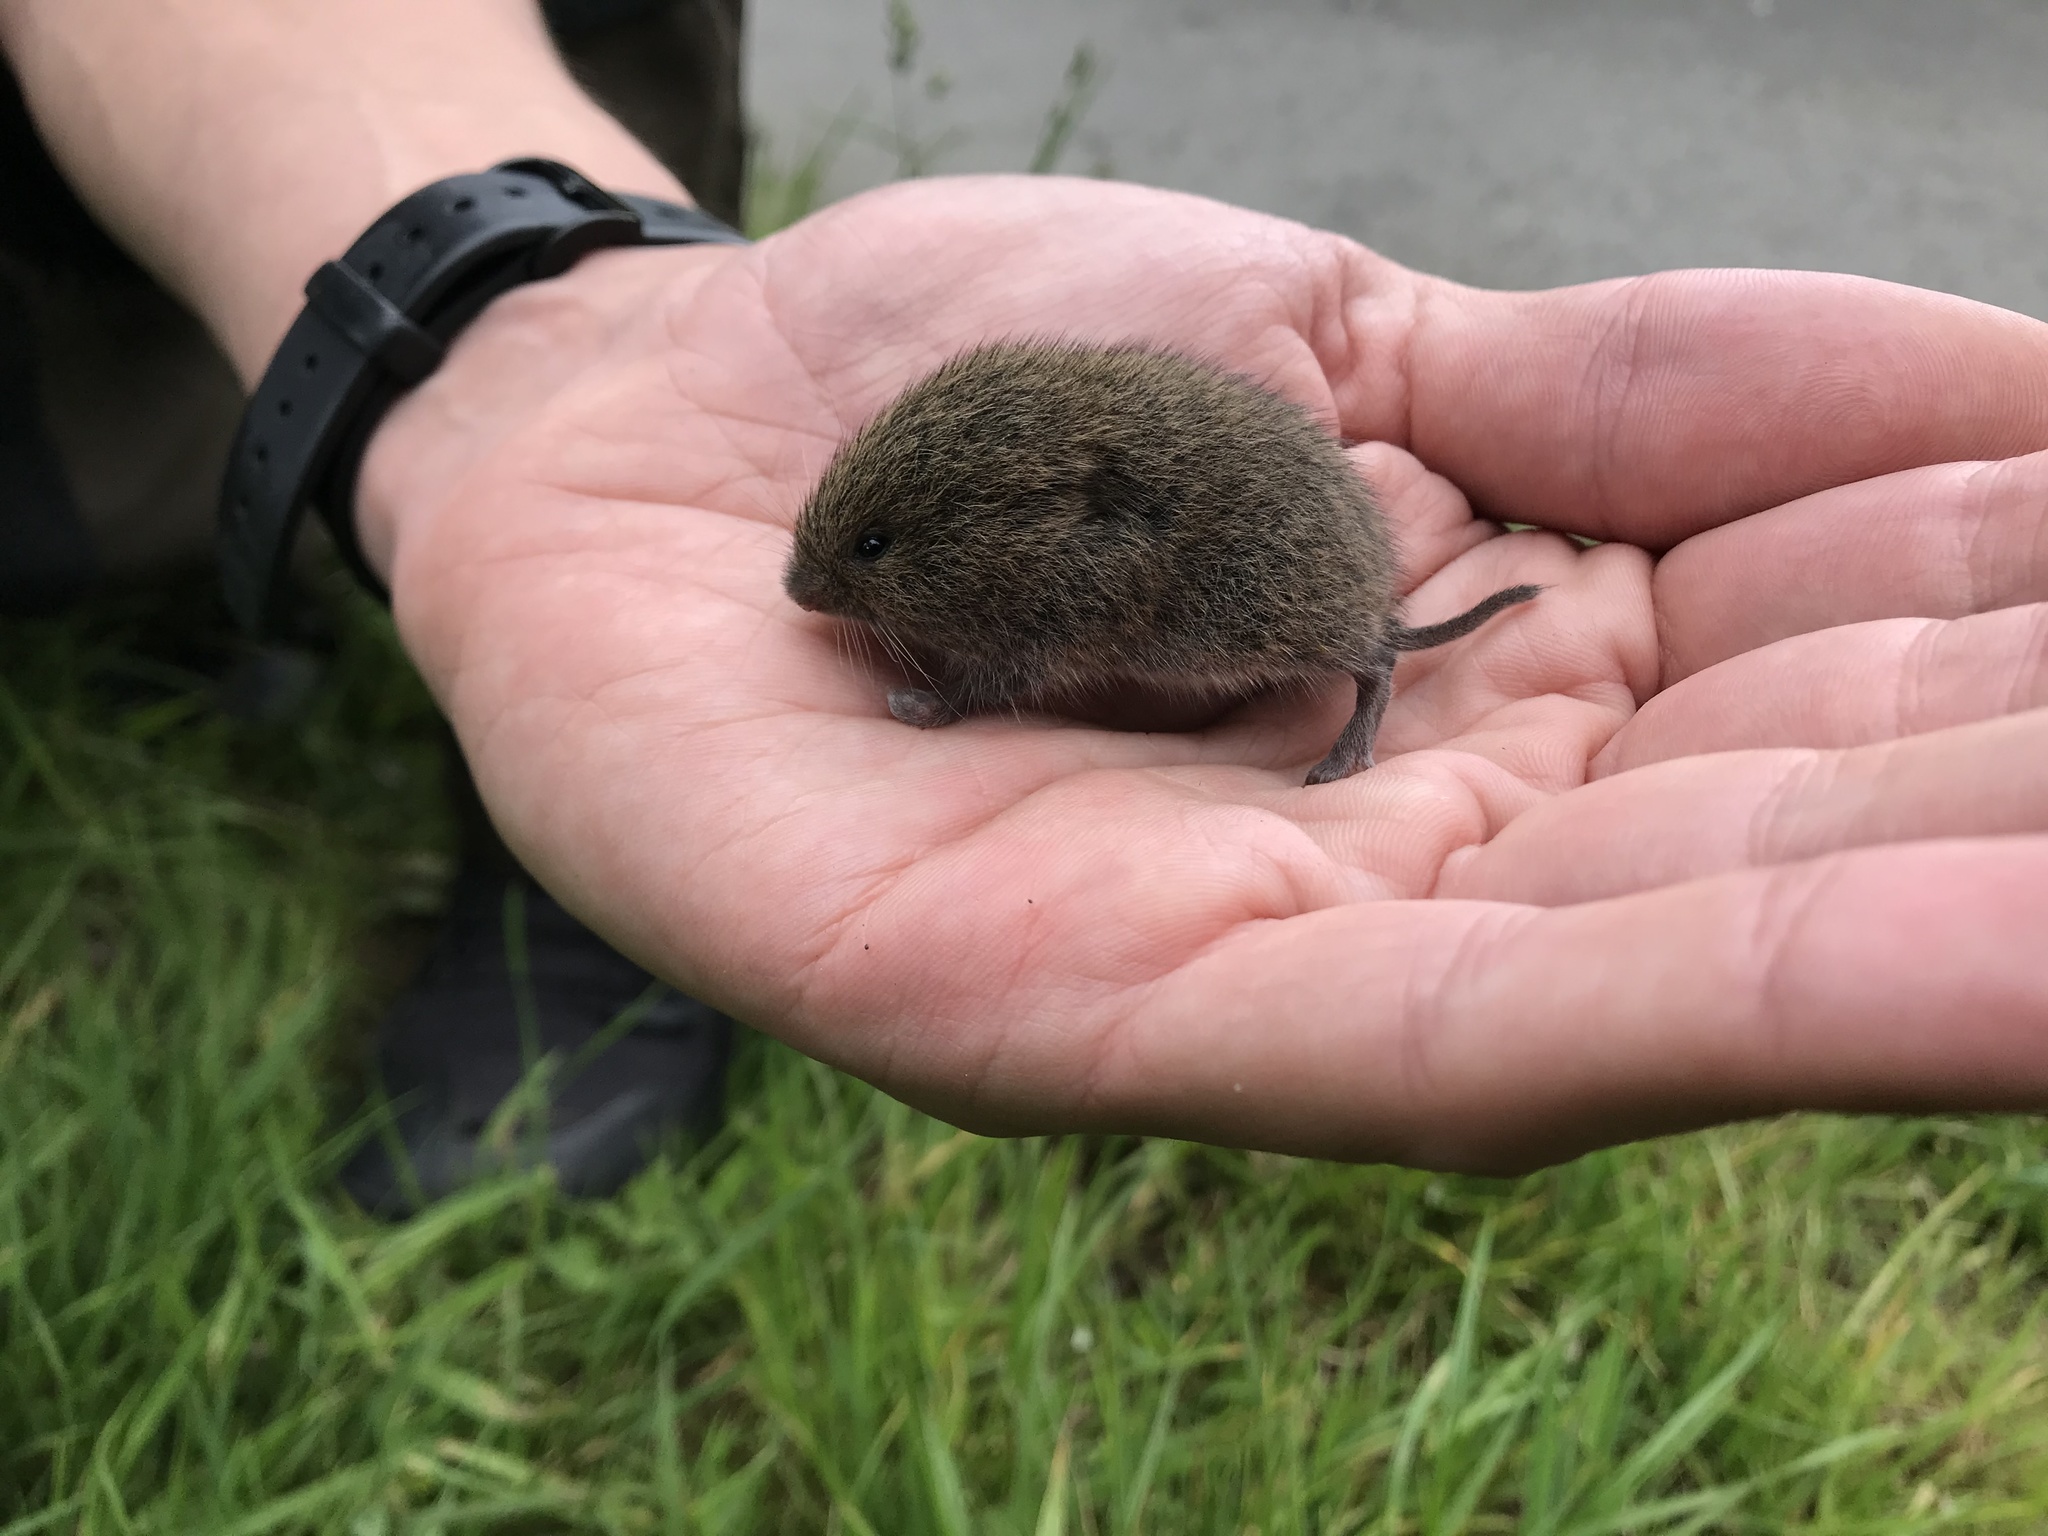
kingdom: Animalia
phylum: Chordata
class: Mammalia
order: Rodentia
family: Cricetidae
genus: Microtus
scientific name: Microtus agrestis
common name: Field vole
